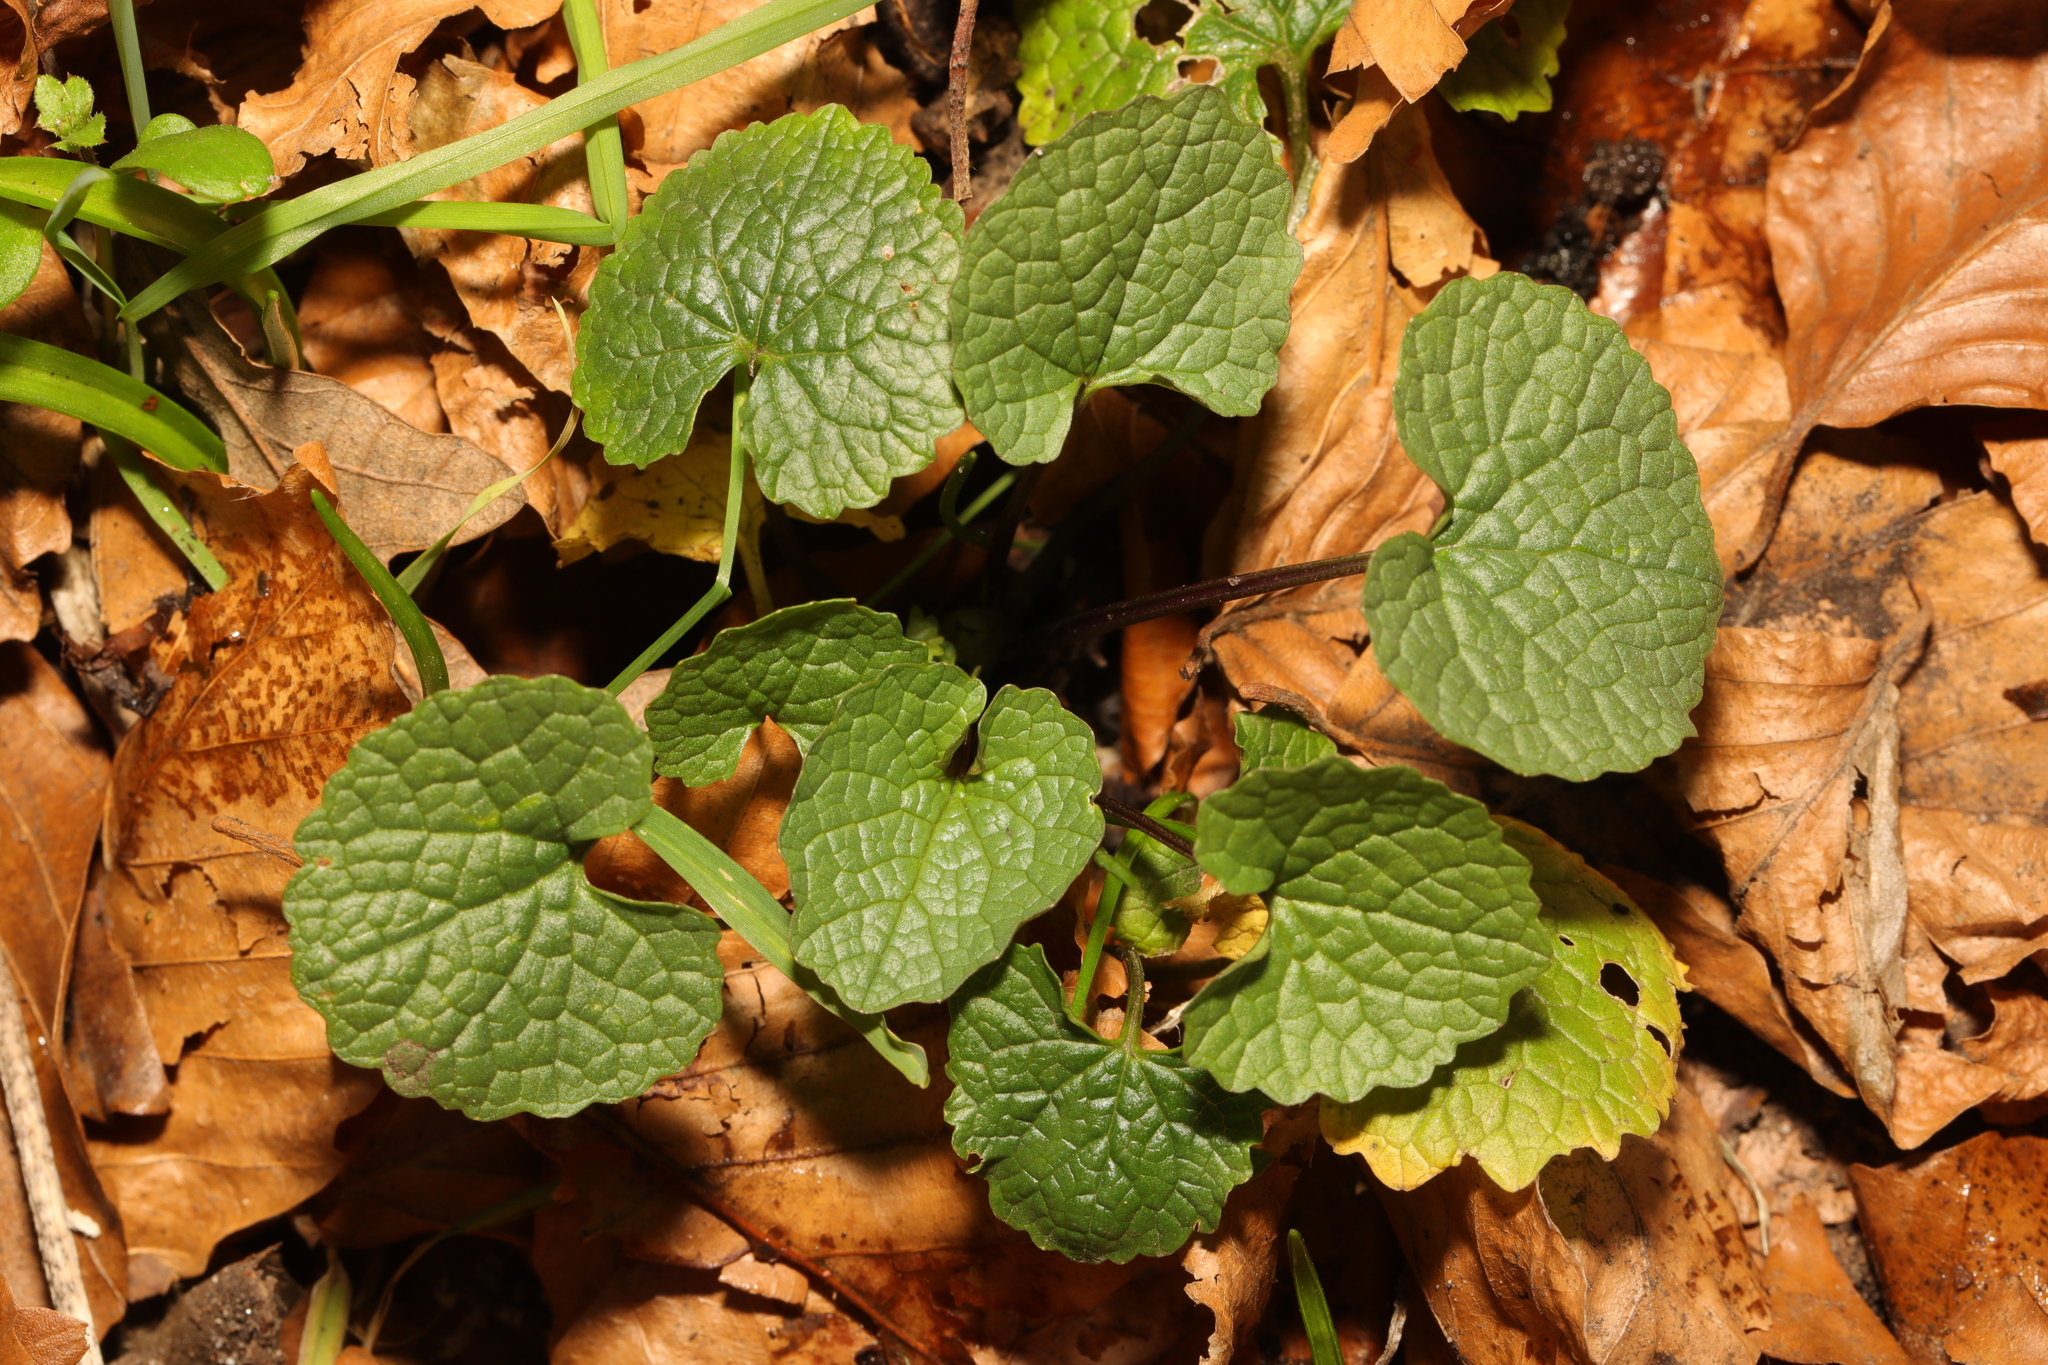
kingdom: Plantae
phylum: Tracheophyta
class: Magnoliopsida
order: Brassicales
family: Brassicaceae
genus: Alliaria
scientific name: Alliaria petiolata
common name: Garlic mustard
